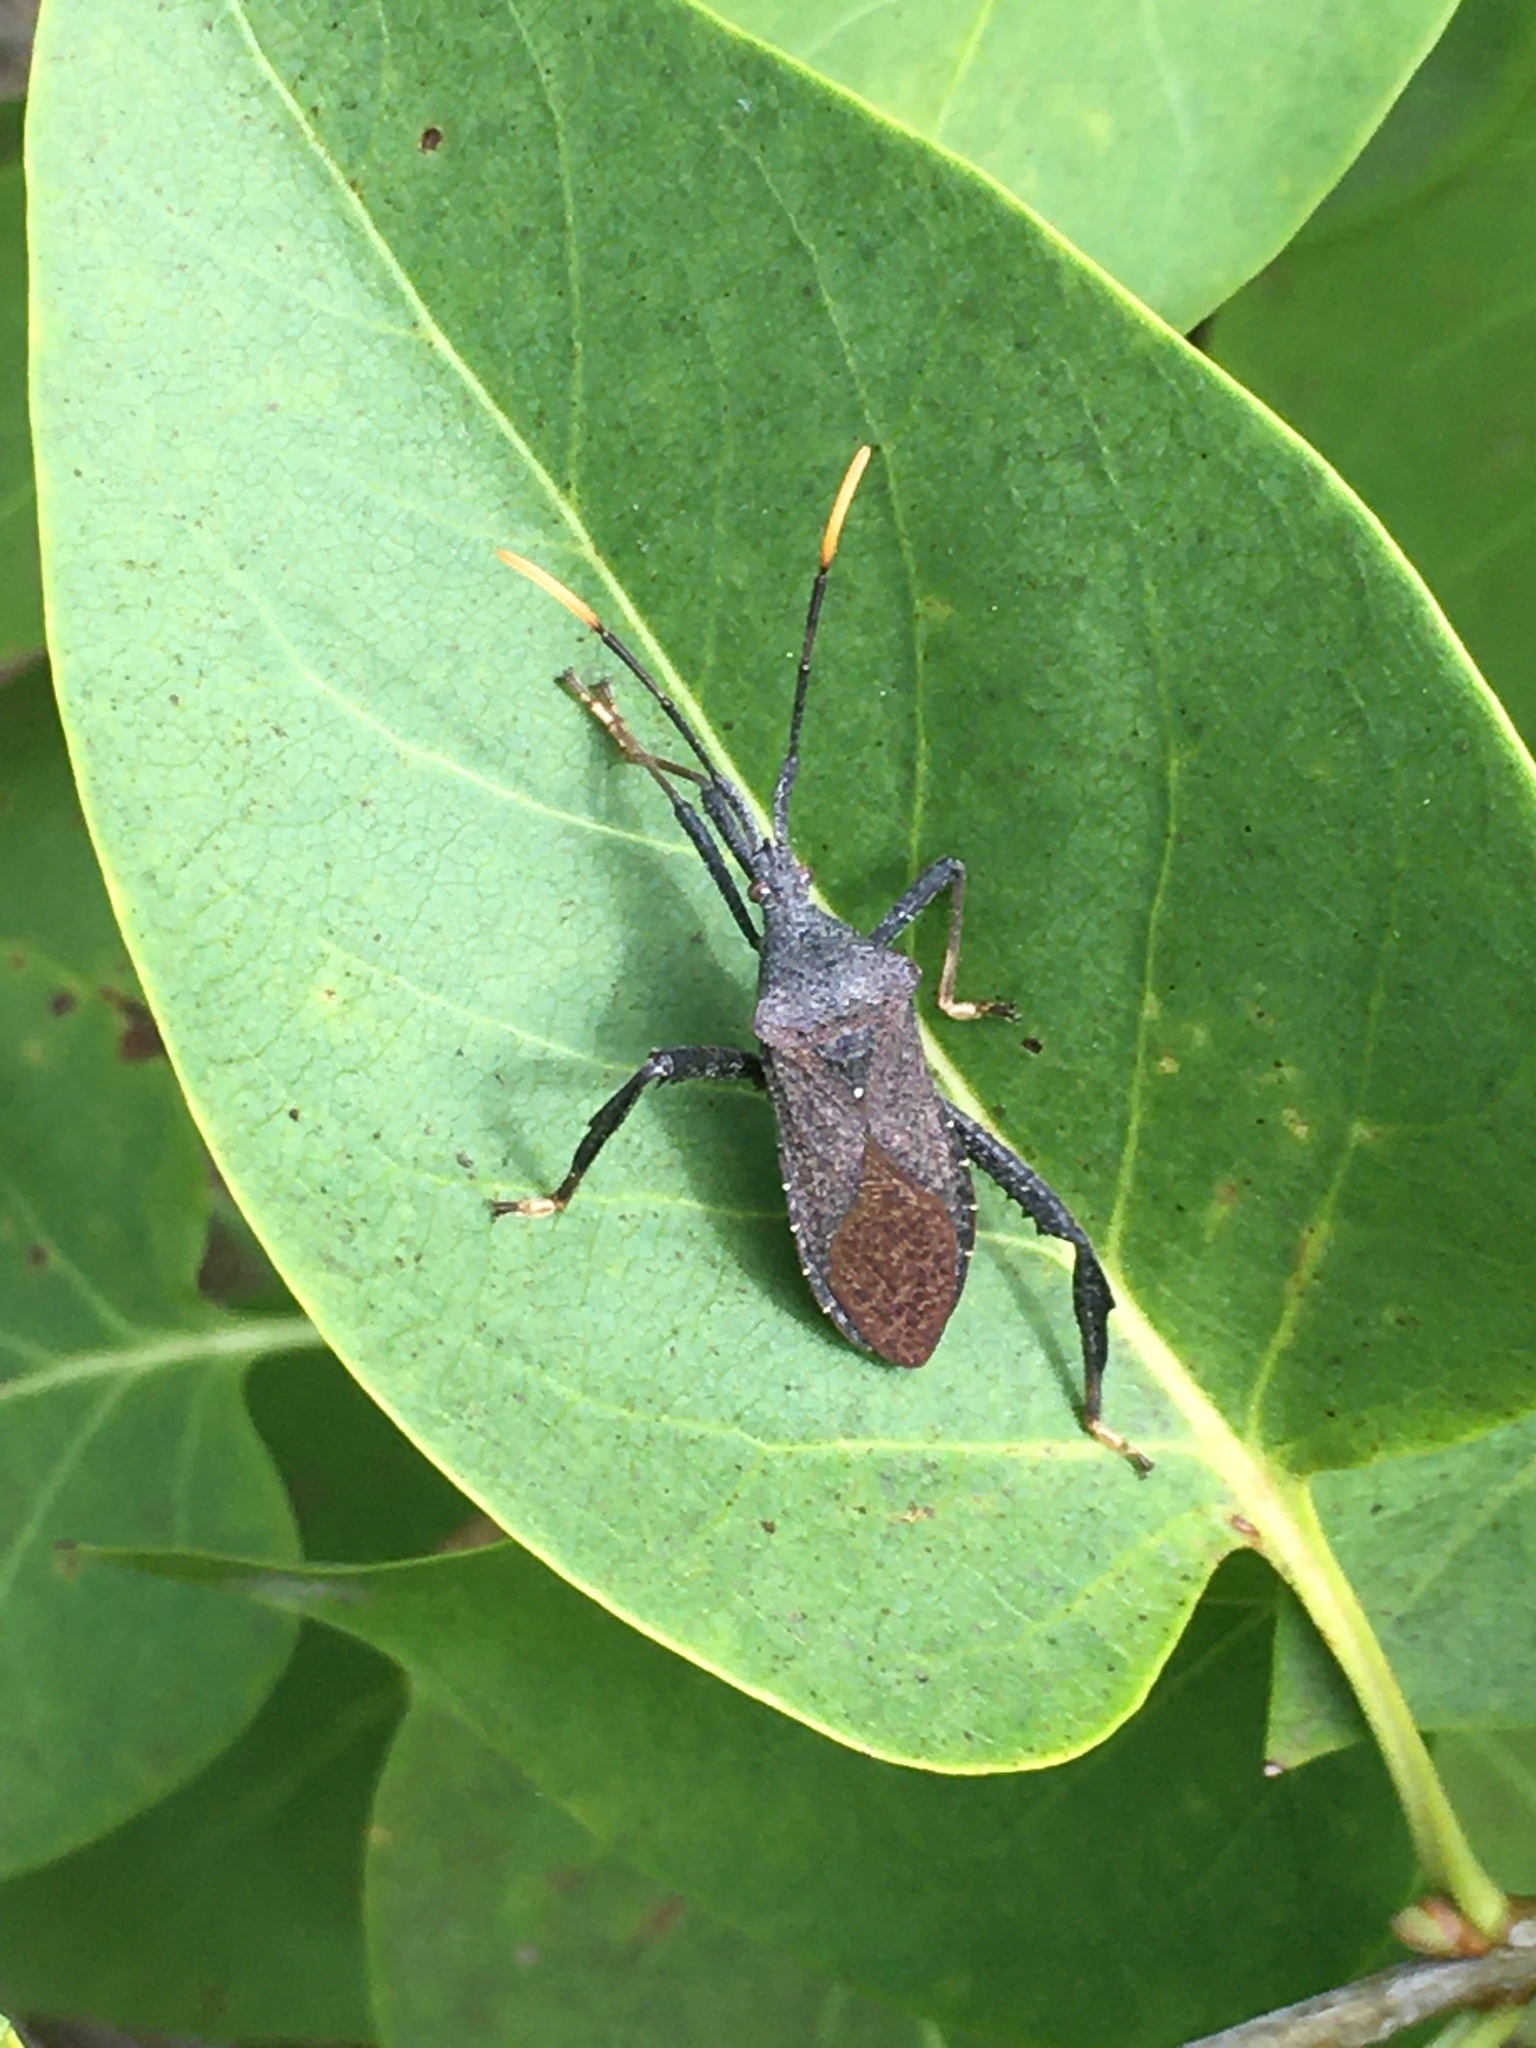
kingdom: Animalia
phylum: Arthropoda
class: Insecta
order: Hemiptera
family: Coreidae
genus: Acanthocephala
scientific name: Acanthocephala terminalis
